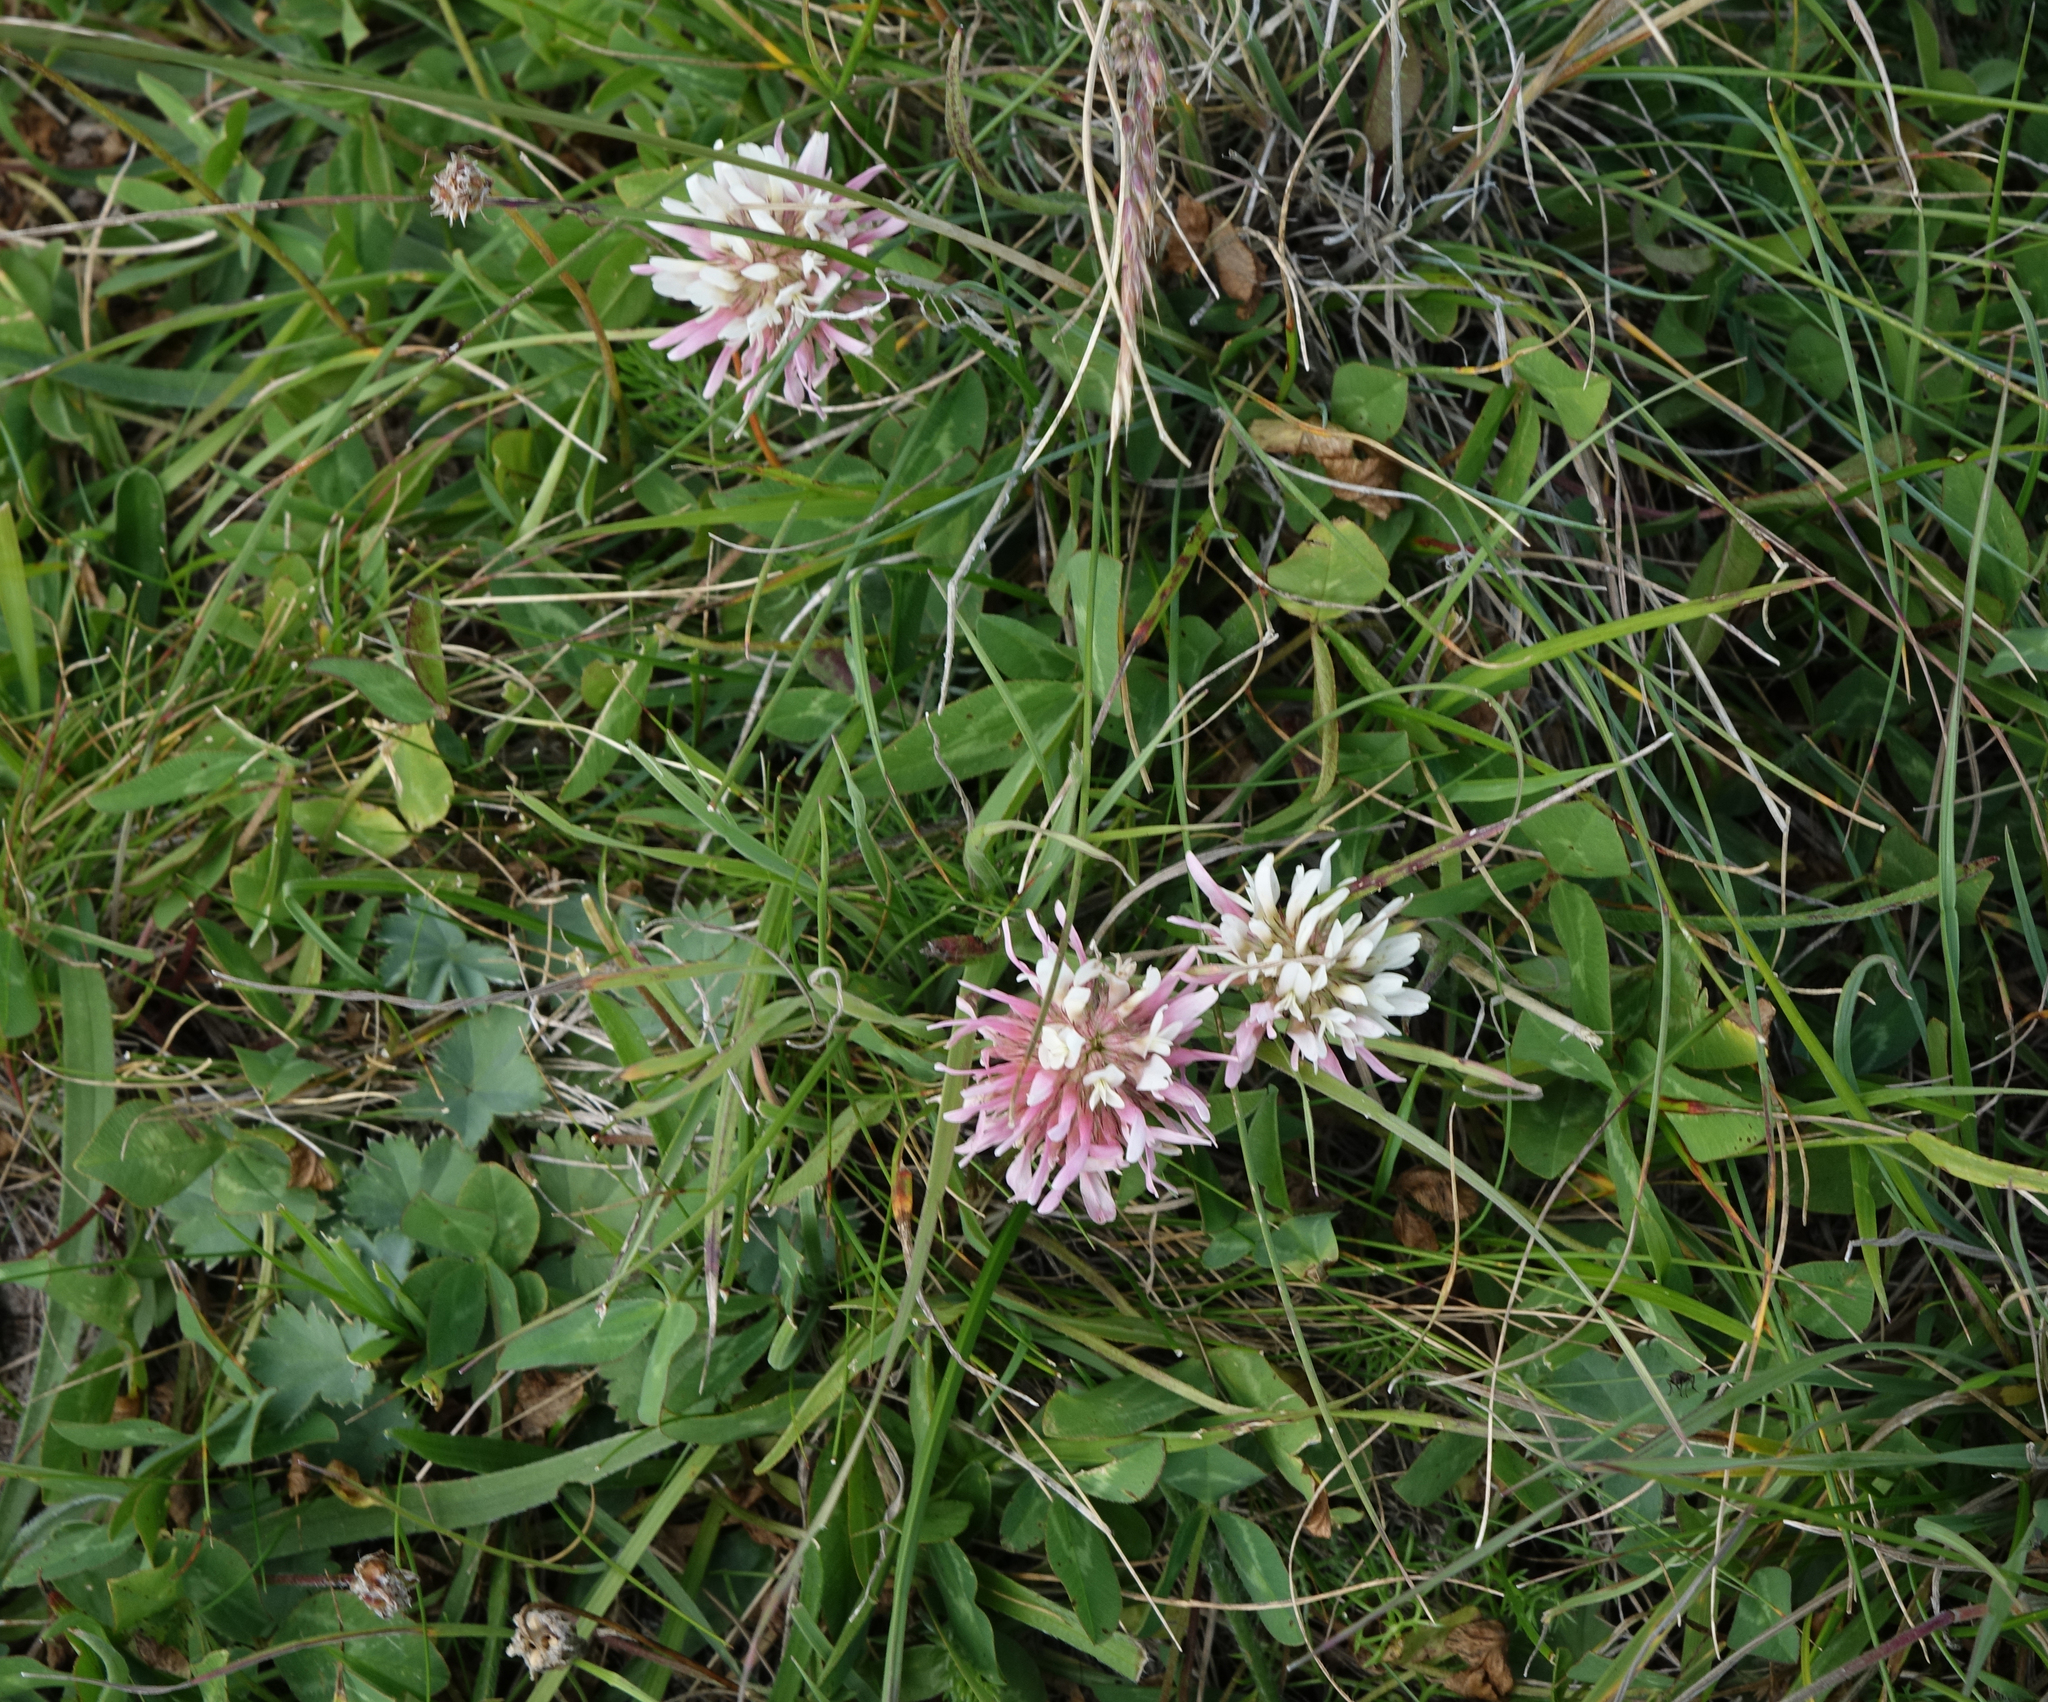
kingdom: Plantae
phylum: Tracheophyta
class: Magnoliopsida
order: Fabales
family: Fabaceae
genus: Trifolium
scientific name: Trifolium ambiguum
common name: Kura clover
